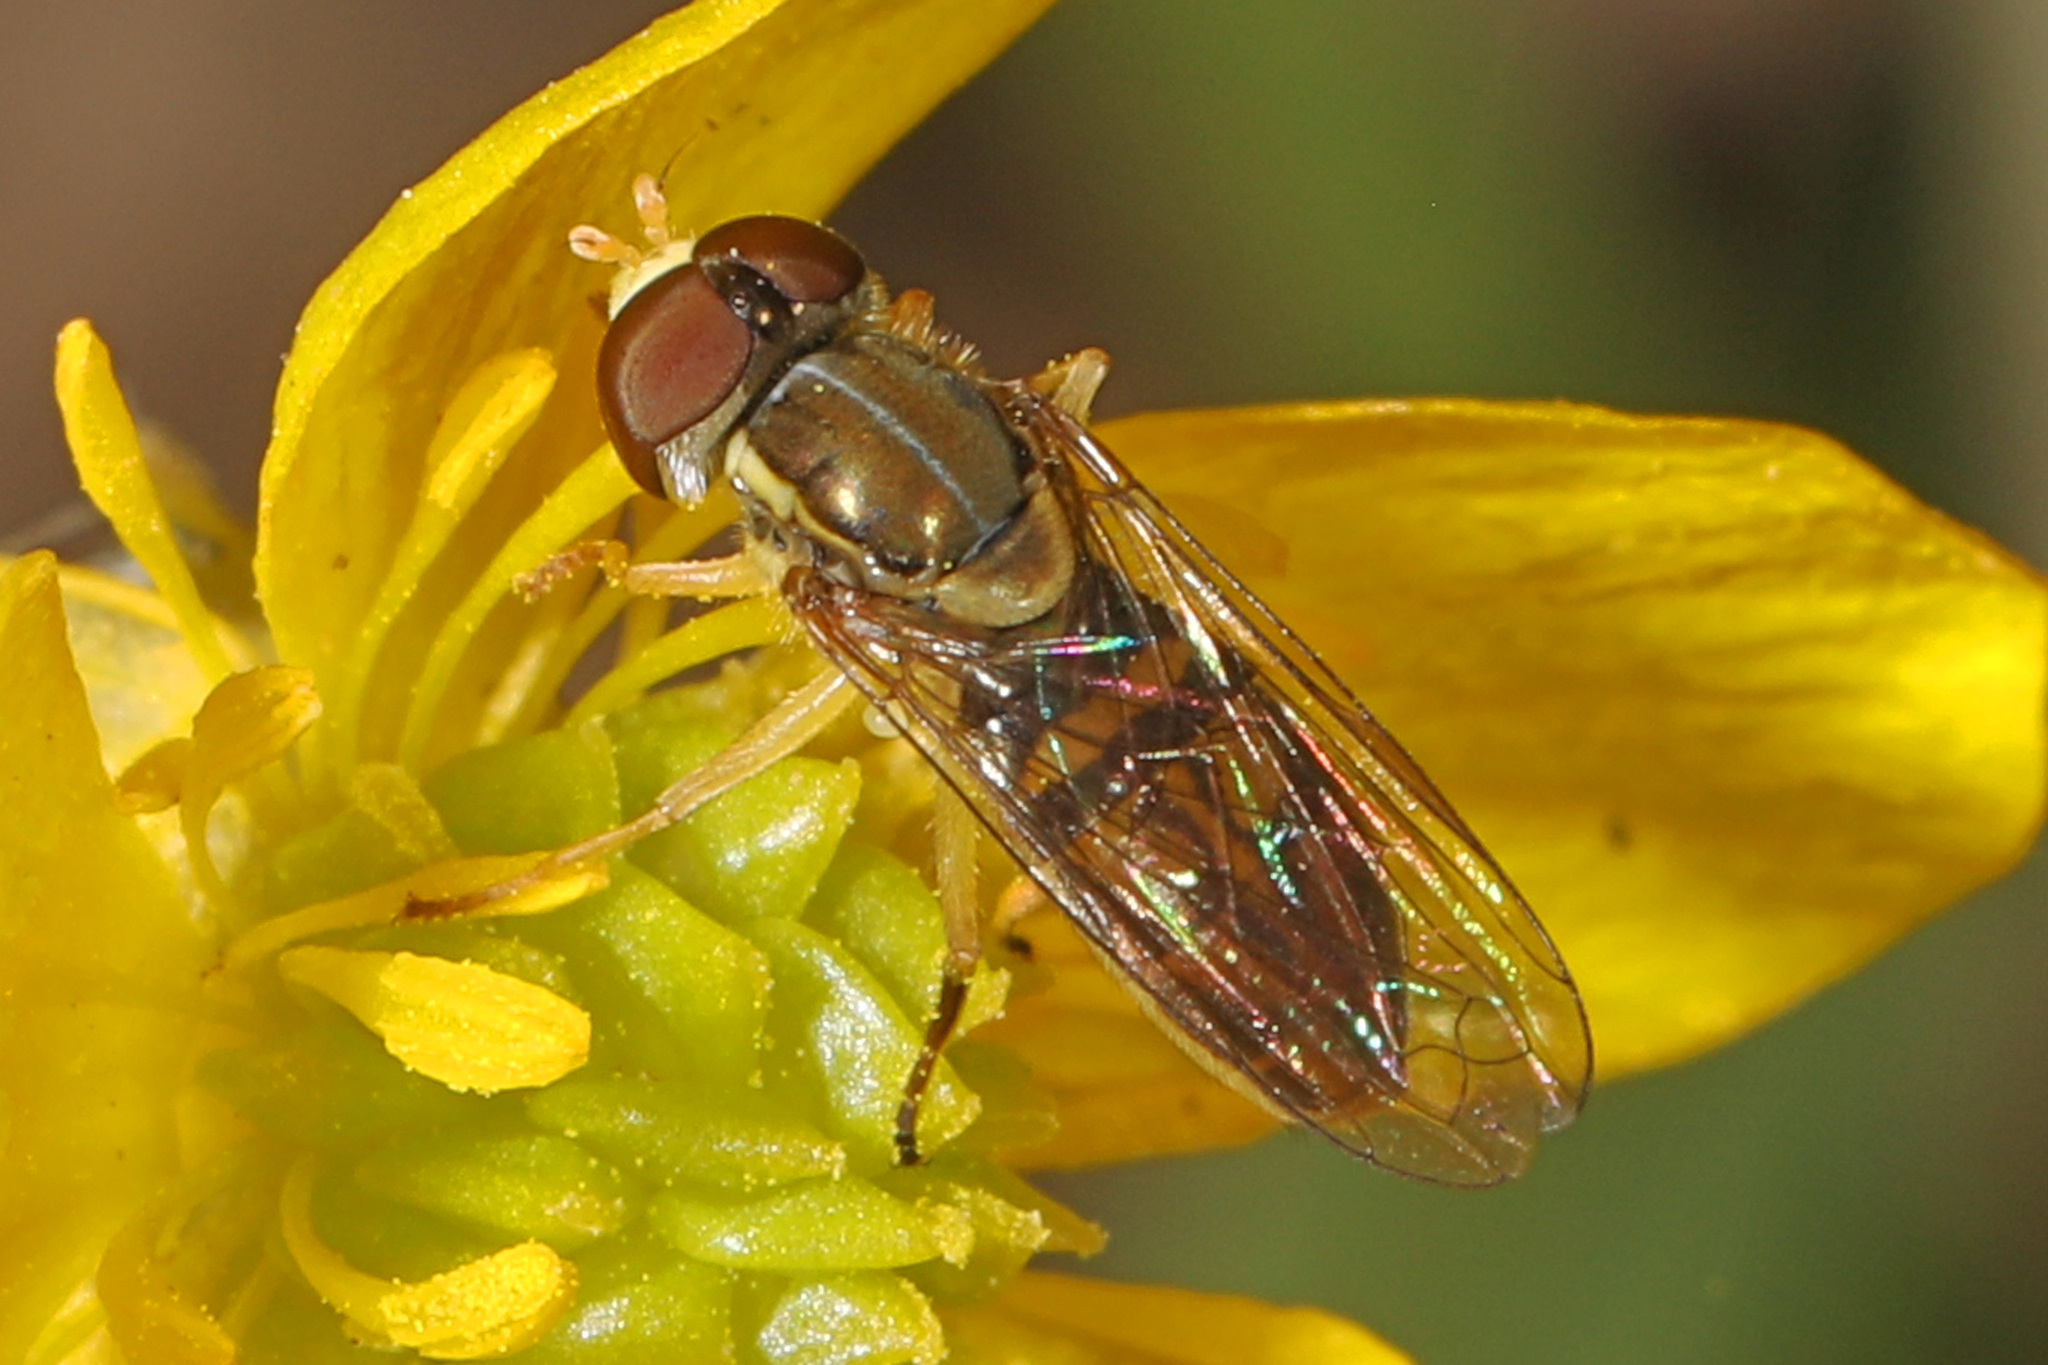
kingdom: Animalia
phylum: Arthropoda
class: Insecta
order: Diptera
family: Syrphidae
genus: Toxomerus
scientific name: Toxomerus marginatus
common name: Syrphid fly
